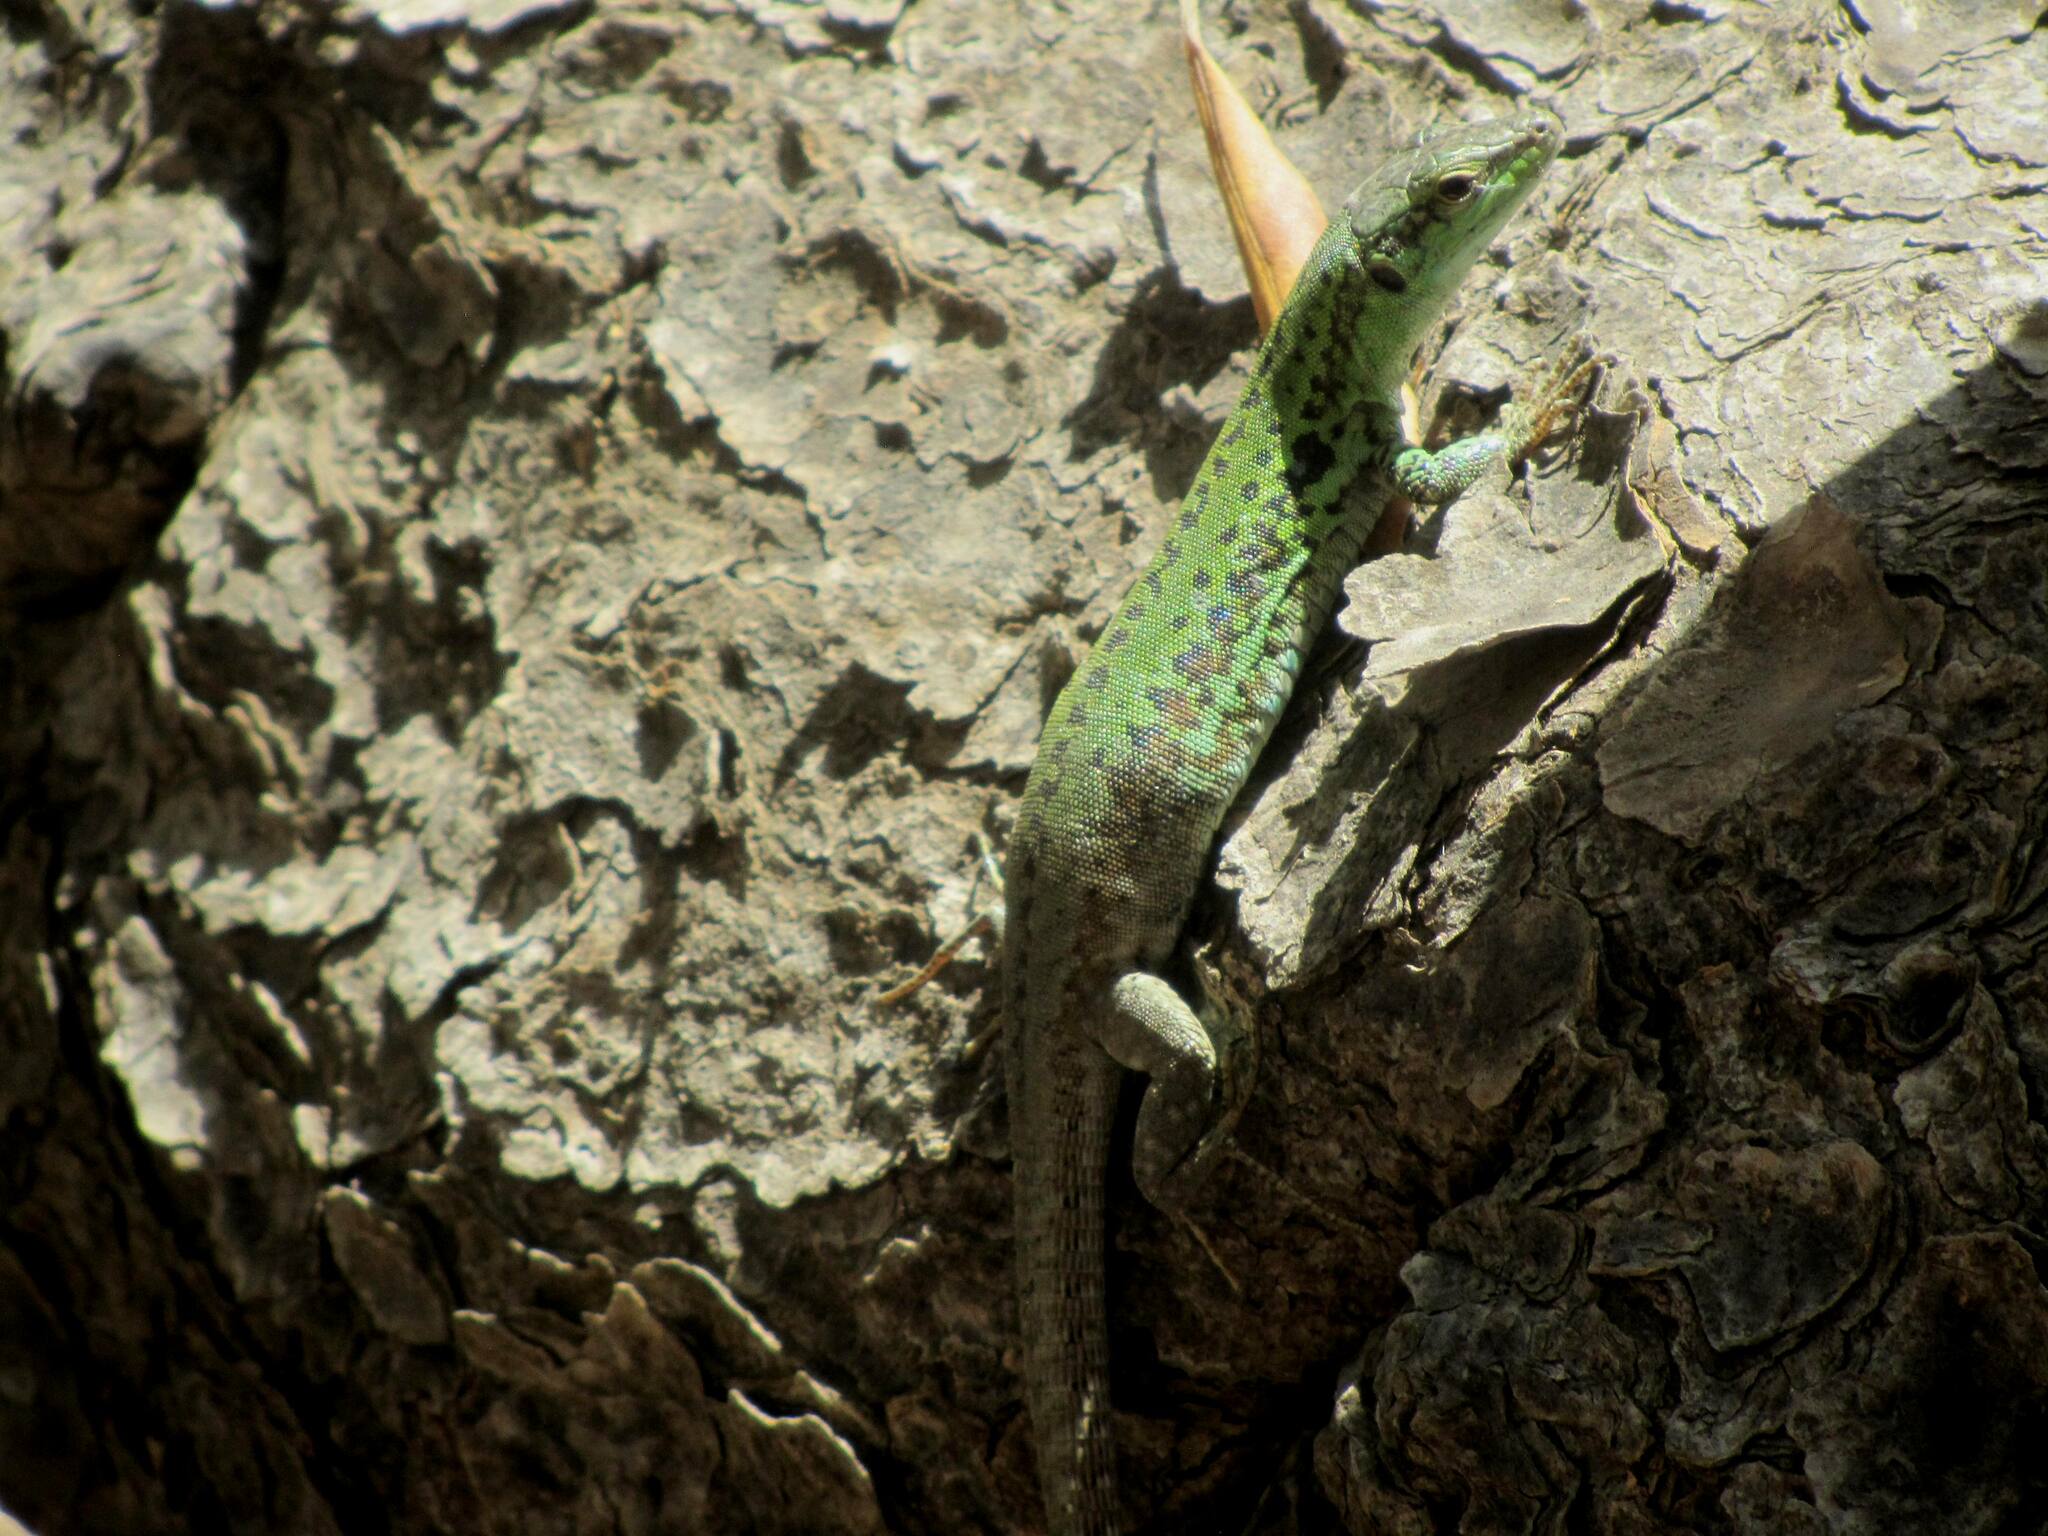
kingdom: Animalia
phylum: Chordata
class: Squamata
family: Lacertidae
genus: Podarcis
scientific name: Podarcis siculus
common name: Italian wall lizard
